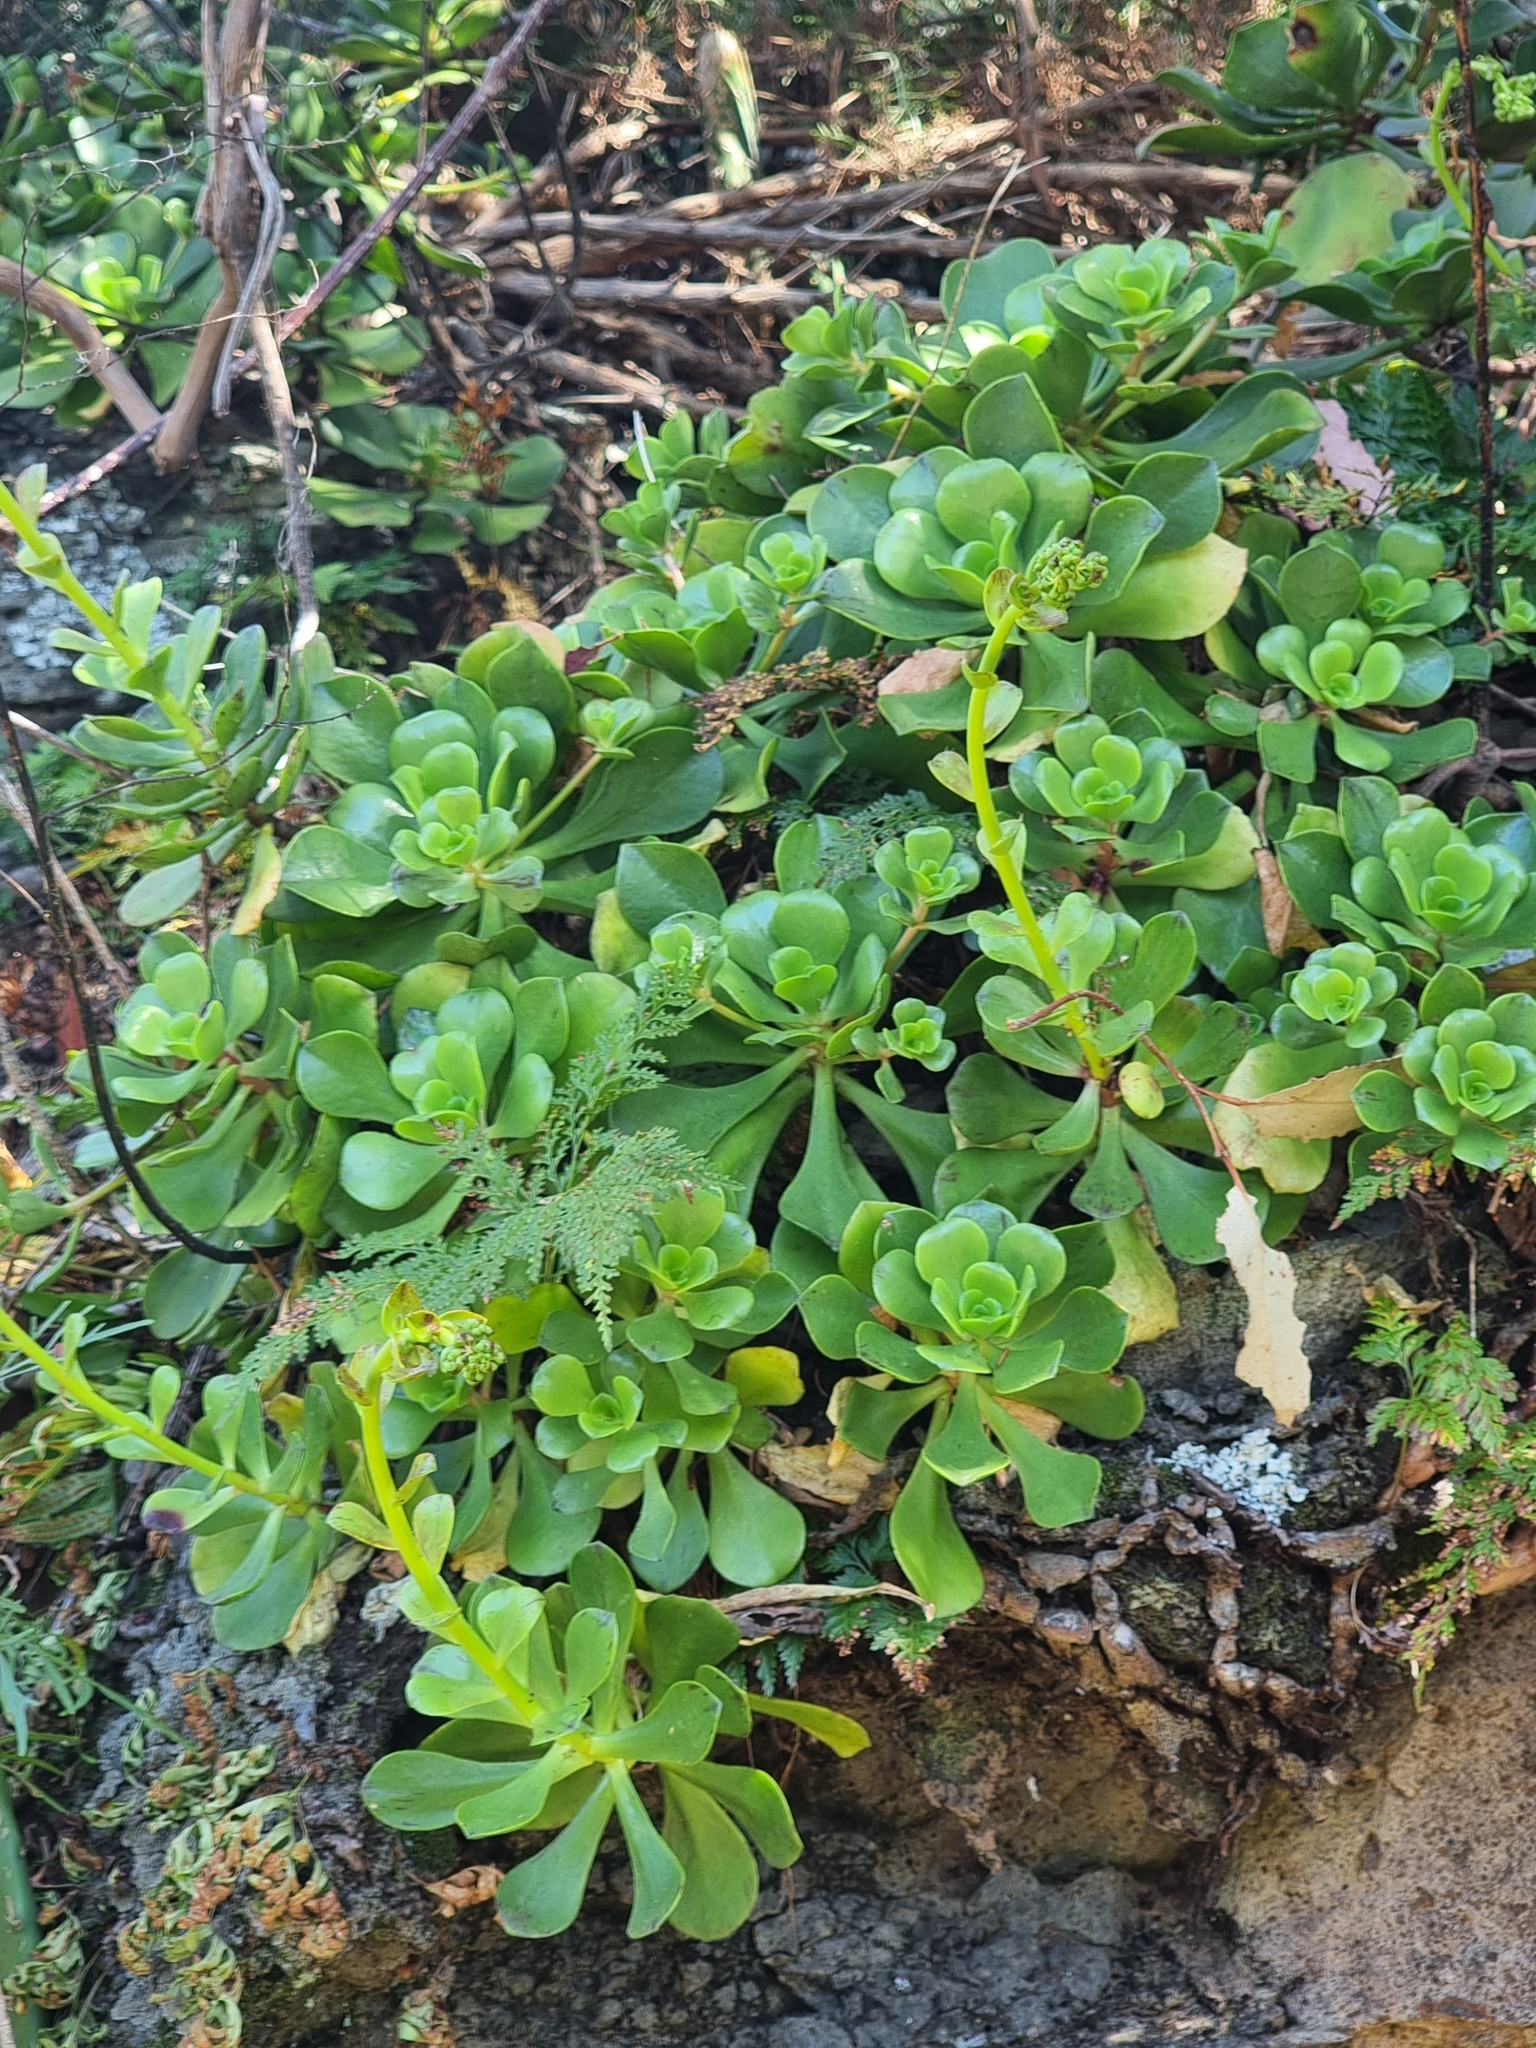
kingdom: Plantae
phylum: Tracheophyta
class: Magnoliopsida
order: Saxifragales
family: Crassulaceae
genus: Aeonium
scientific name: Aeonium glutinosum
